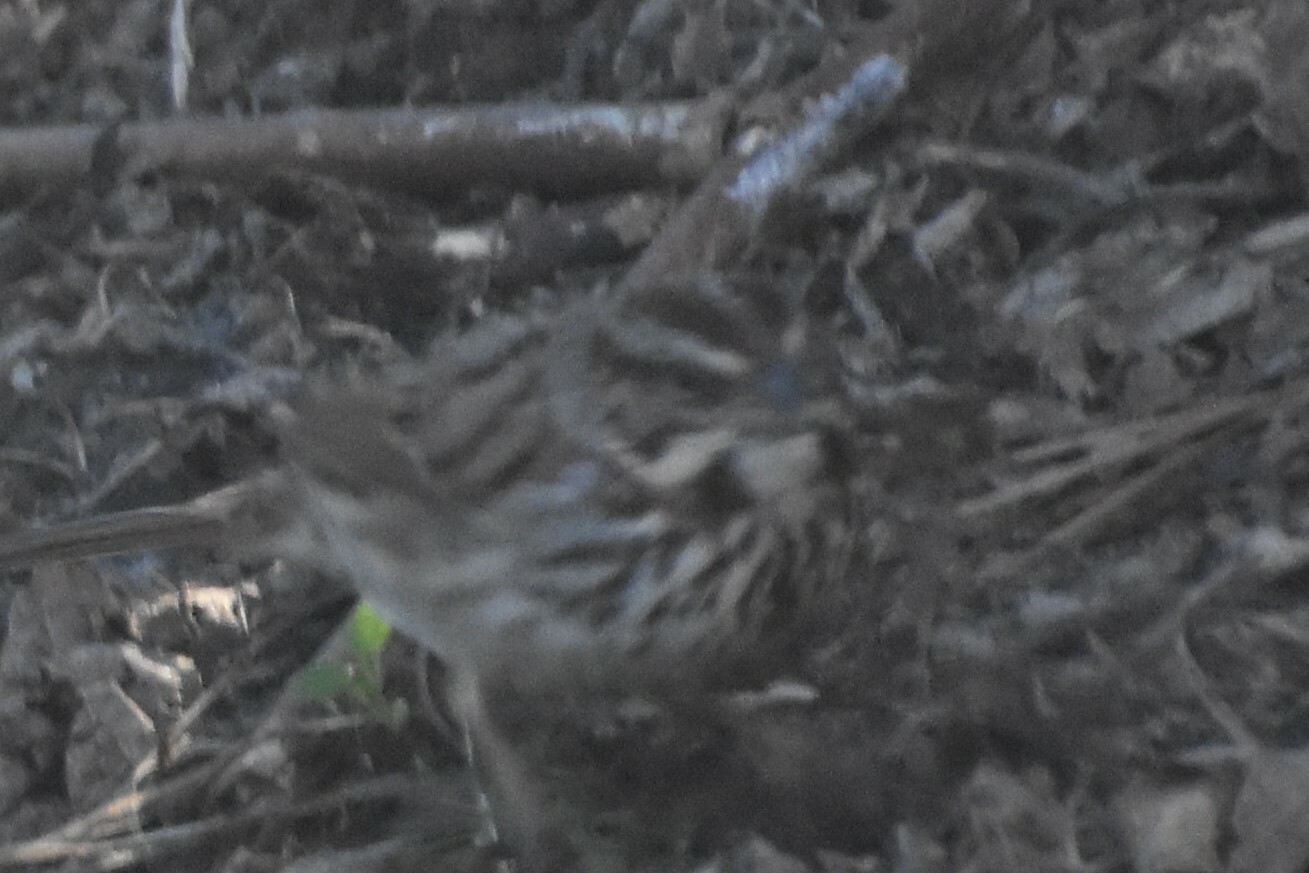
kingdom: Animalia
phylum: Chordata
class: Aves
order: Passeriformes
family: Passerellidae
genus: Melospiza
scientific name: Melospiza melodia
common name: Song sparrow
